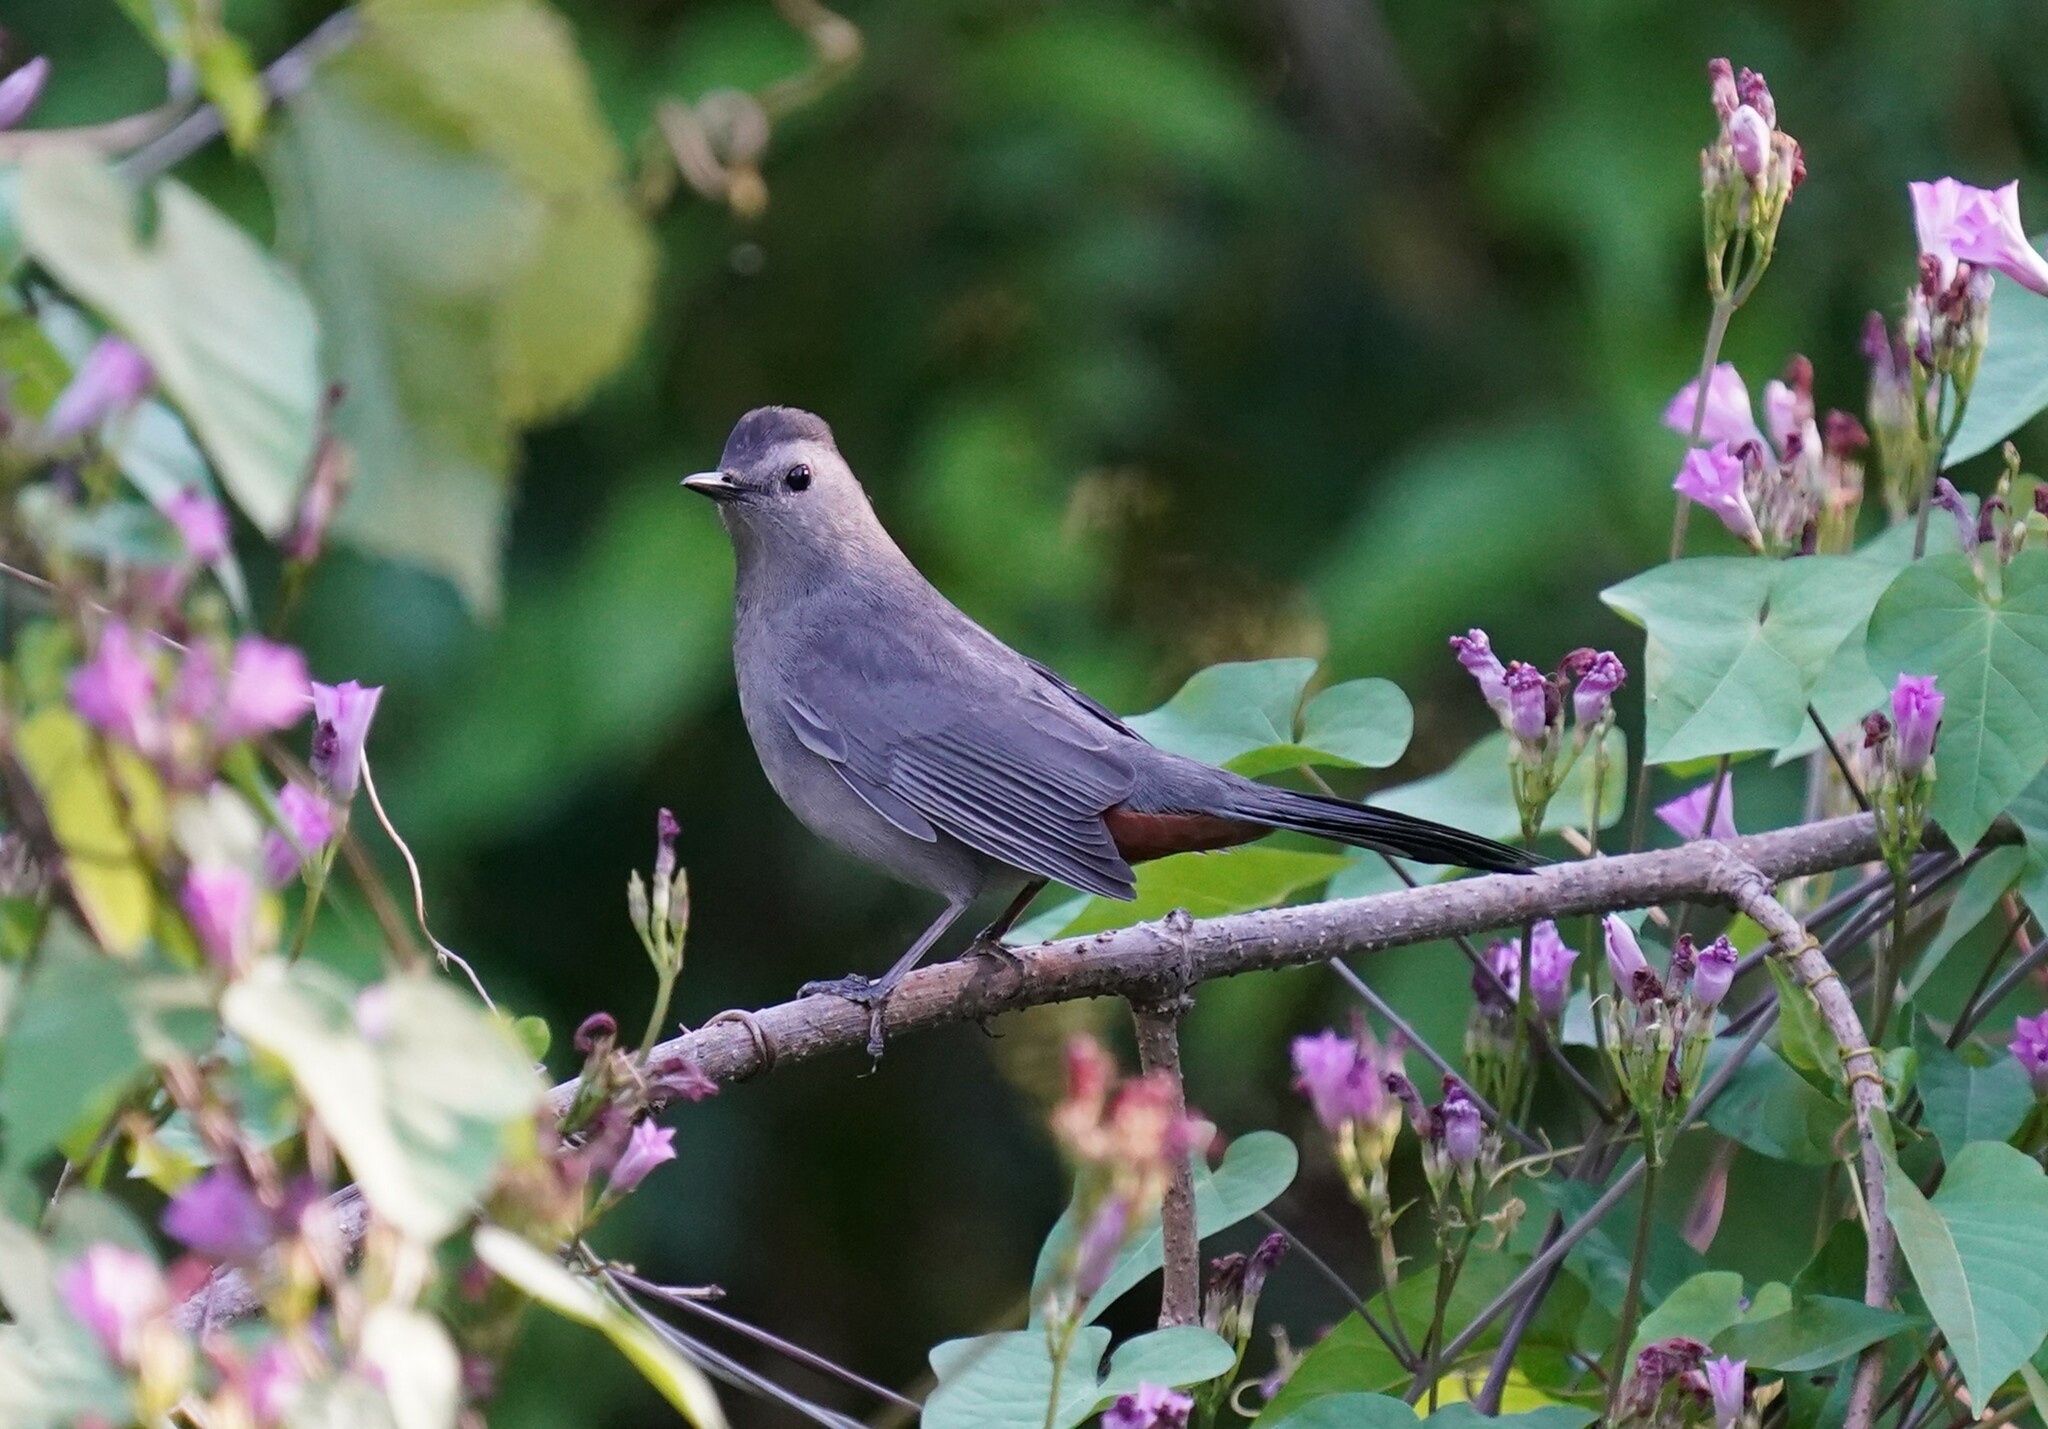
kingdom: Animalia
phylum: Chordata
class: Aves
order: Passeriformes
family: Mimidae
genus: Dumetella
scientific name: Dumetella carolinensis
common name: Gray catbird
